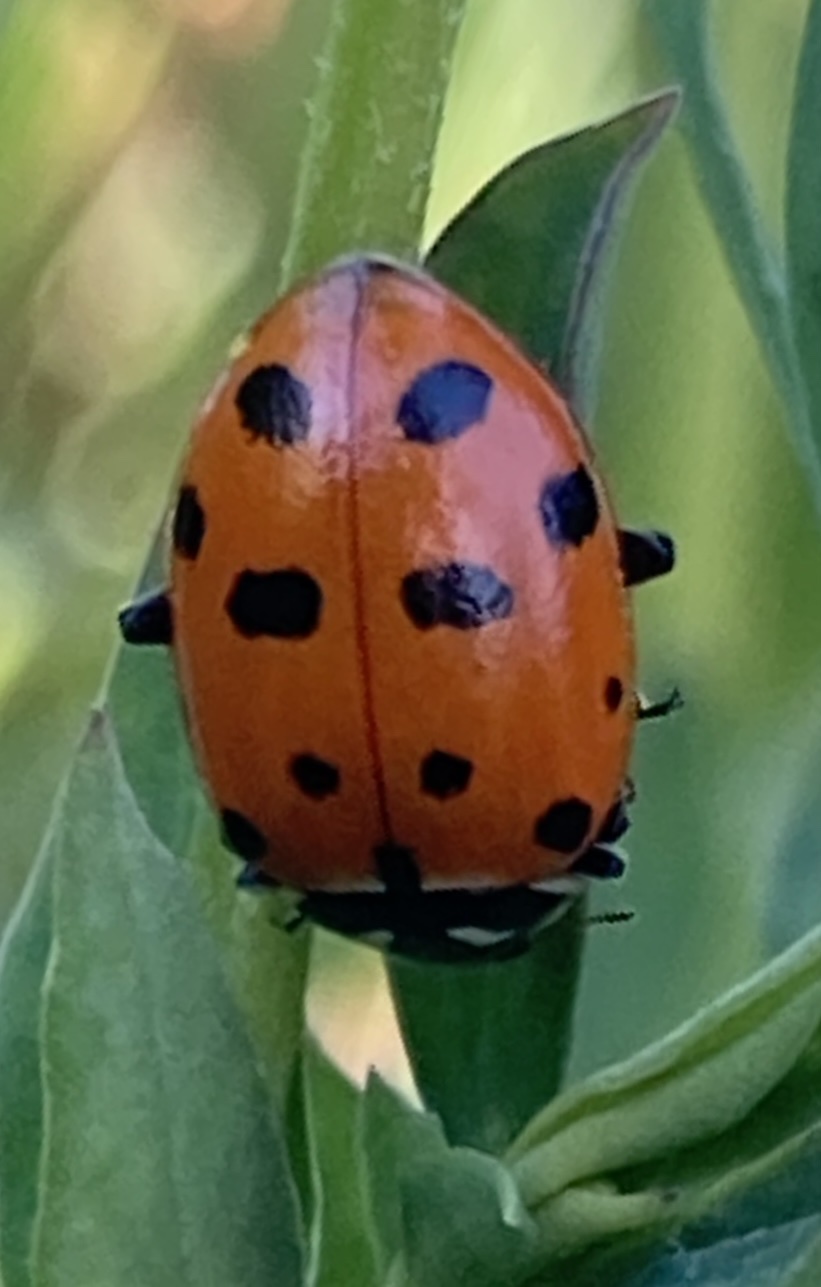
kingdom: Animalia
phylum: Arthropoda
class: Insecta
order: Coleoptera
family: Coccinellidae
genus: Hippodamia
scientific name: Hippodamia convergens
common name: Convergent lady beetle
